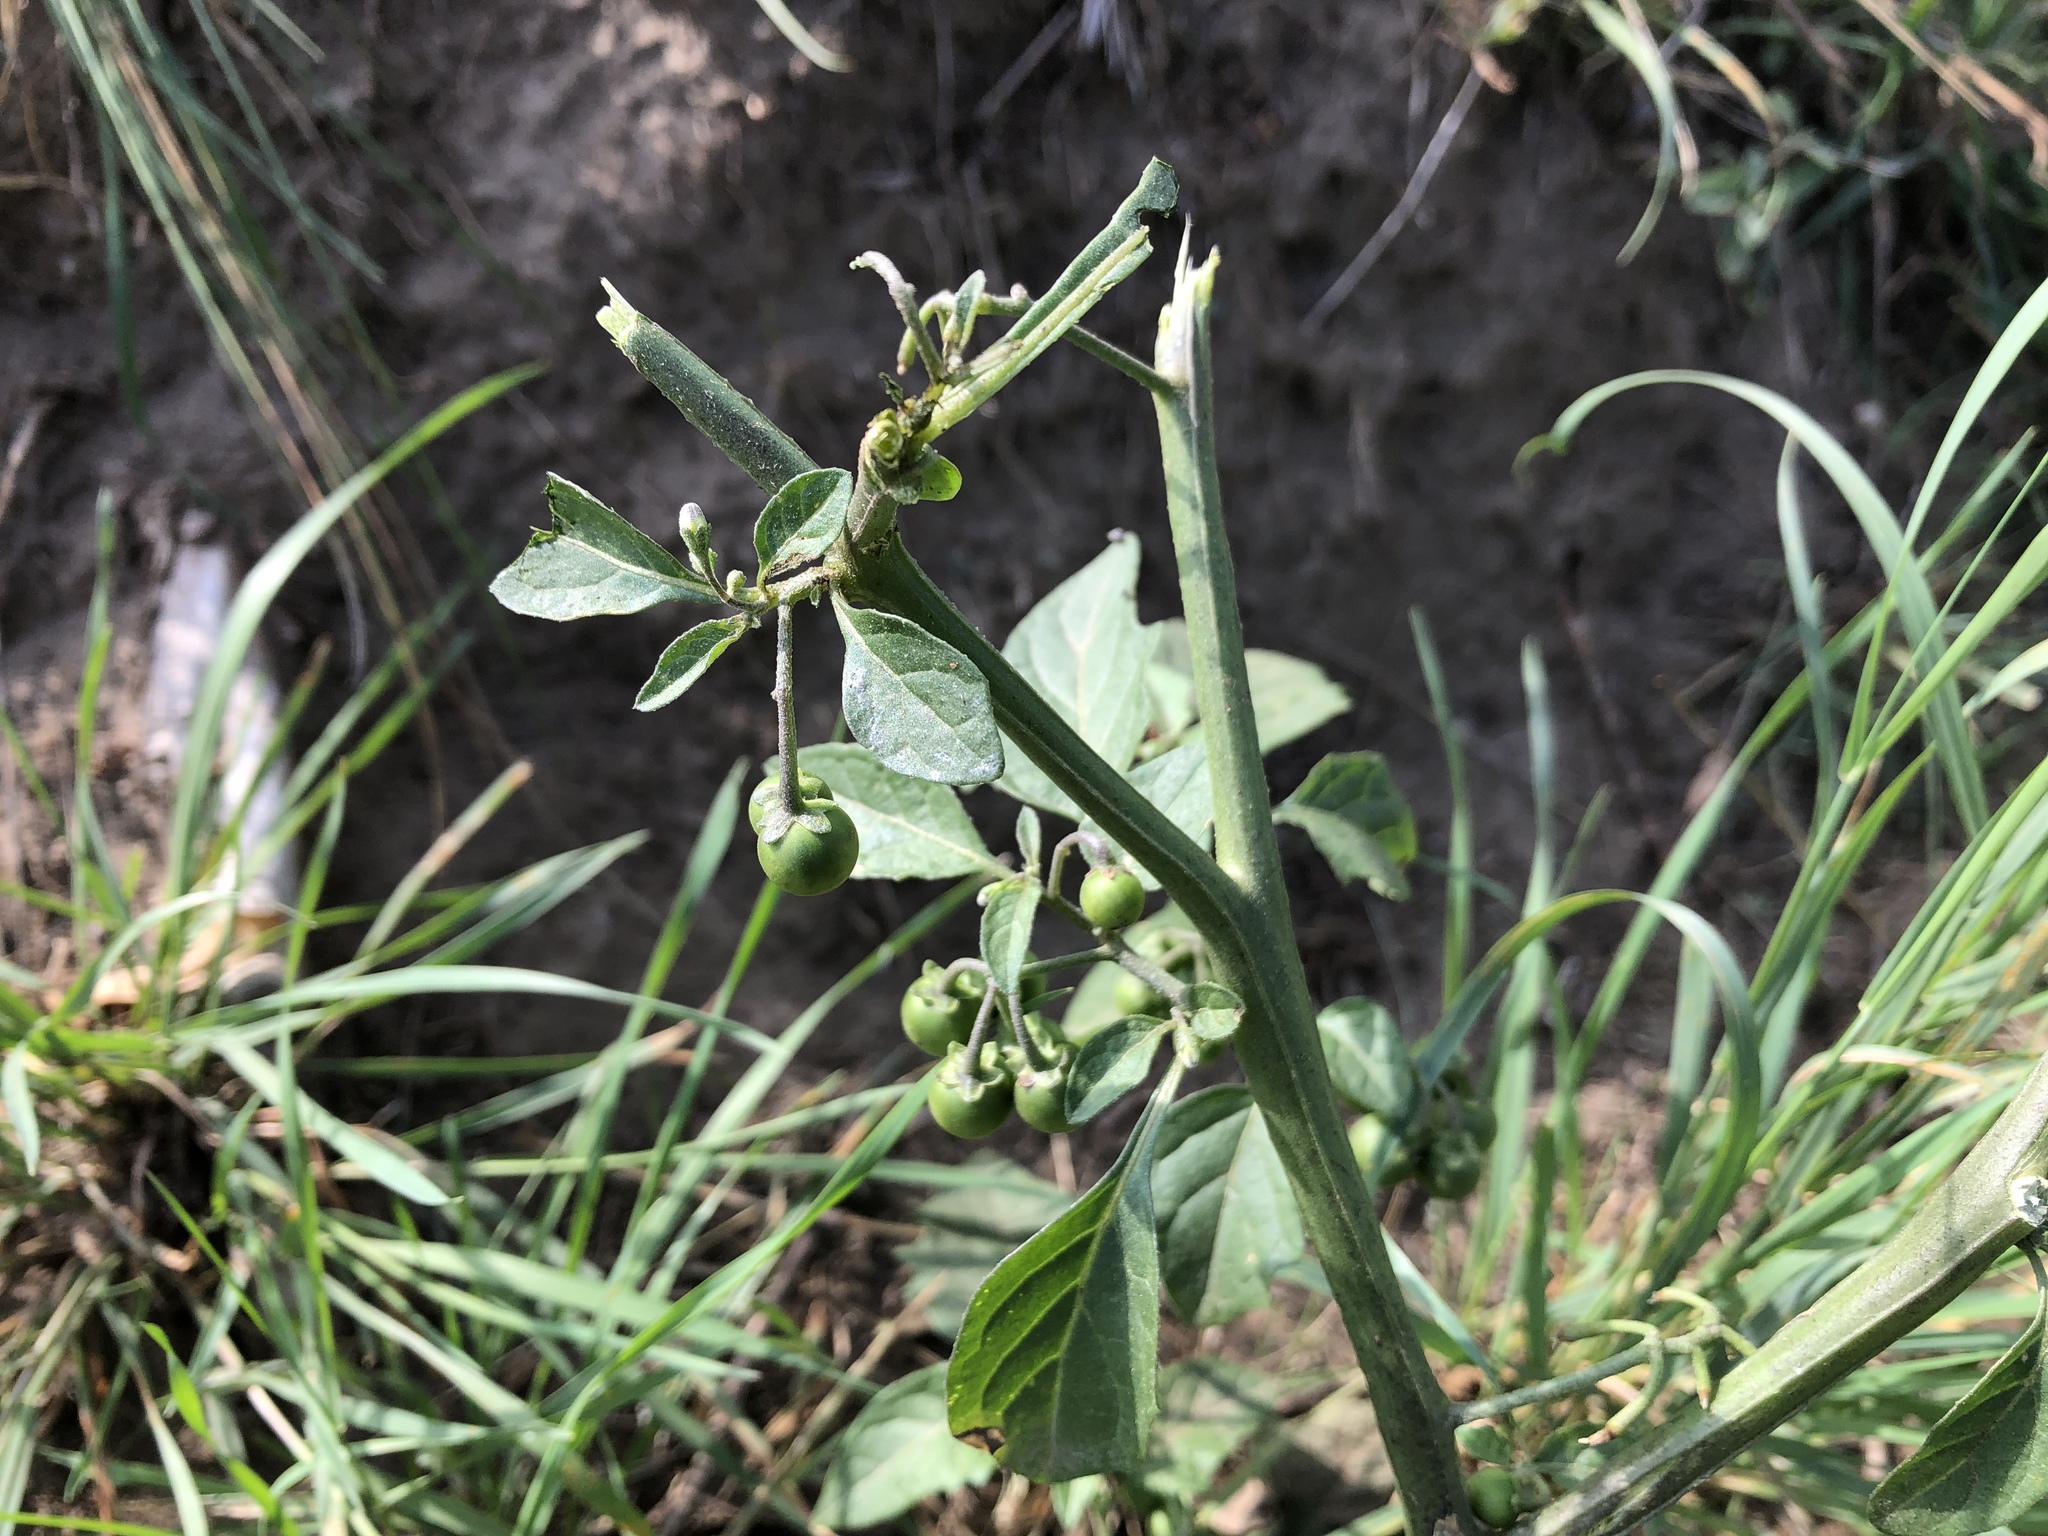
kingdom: Plantae
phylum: Tracheophyta
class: Magnoliopsida
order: Solanales
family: Solanaceae
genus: Solanum
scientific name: Solanum nigrum
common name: Black nightshade
